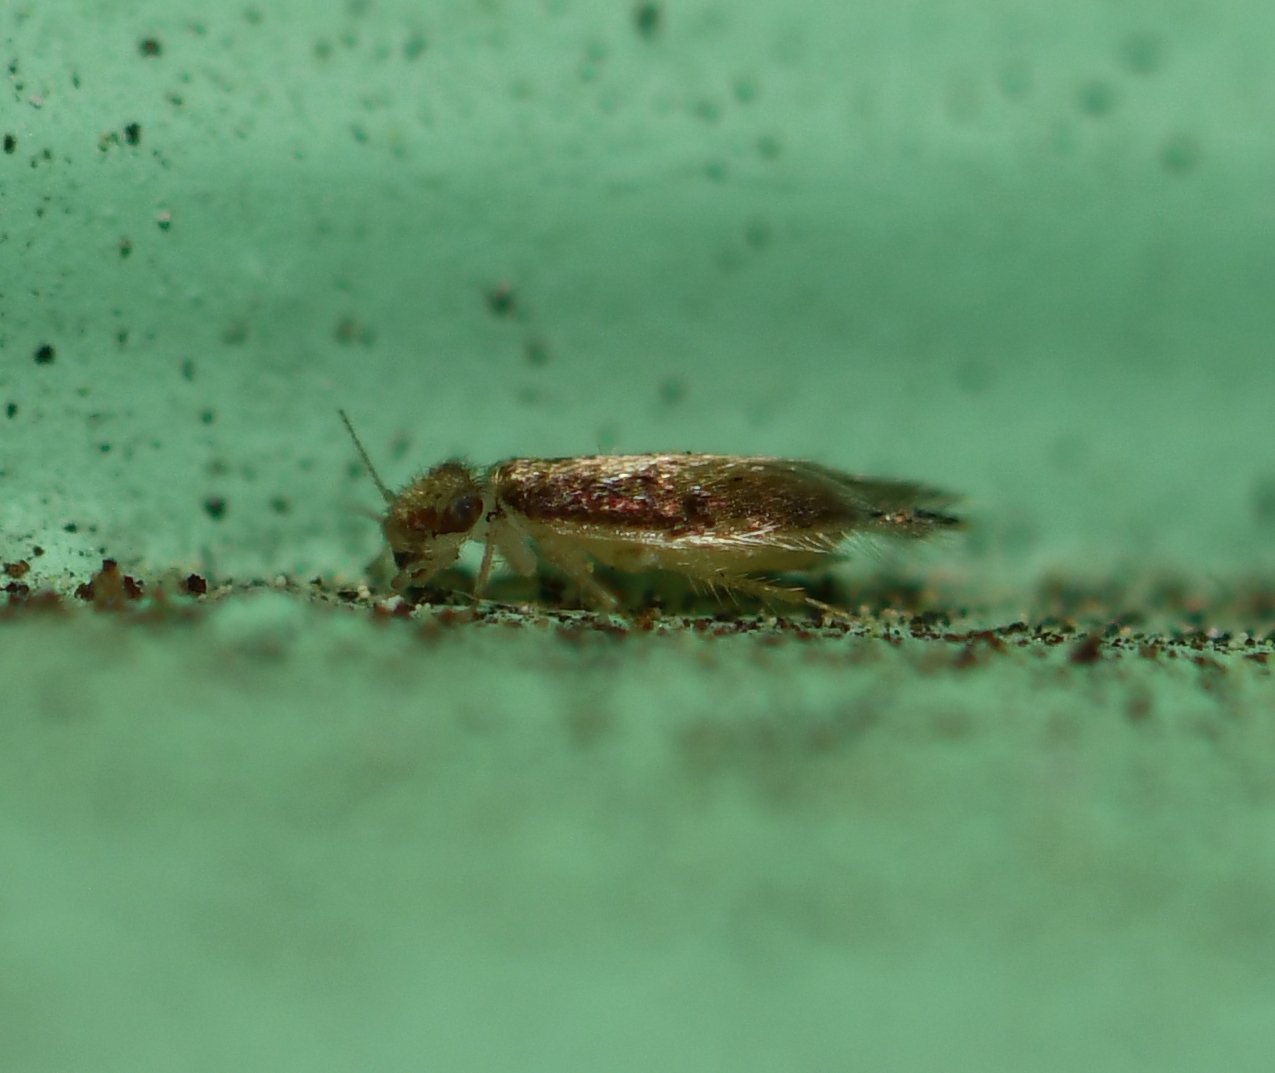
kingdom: Animalia
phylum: Arthropoda
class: Insecta
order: Psocodea
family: Lepidopsocidae
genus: Echmepteryx
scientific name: Echmepteryx madagascariensis
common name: Bark lice
